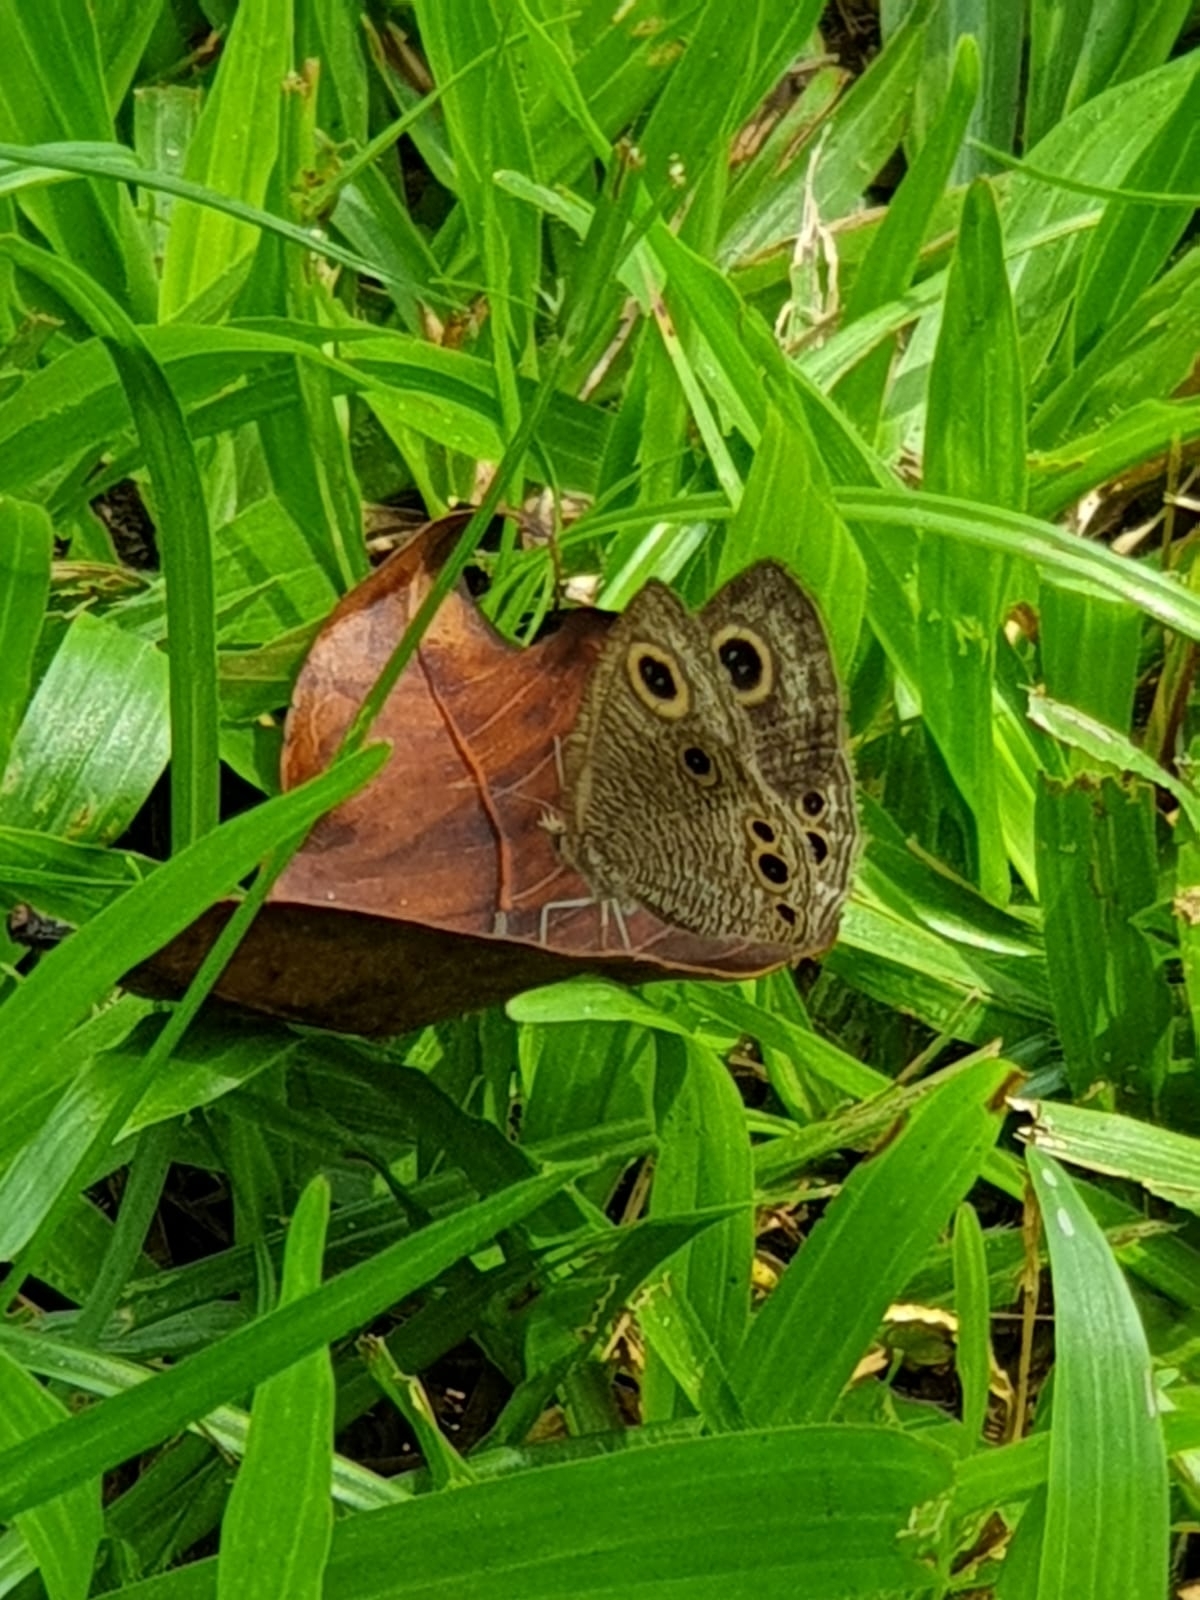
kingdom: Animalia
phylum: Arthropoda
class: Insecta
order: Lepidoptera
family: Nymphalidae
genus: Ypthima
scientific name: Ypthima huebneri
